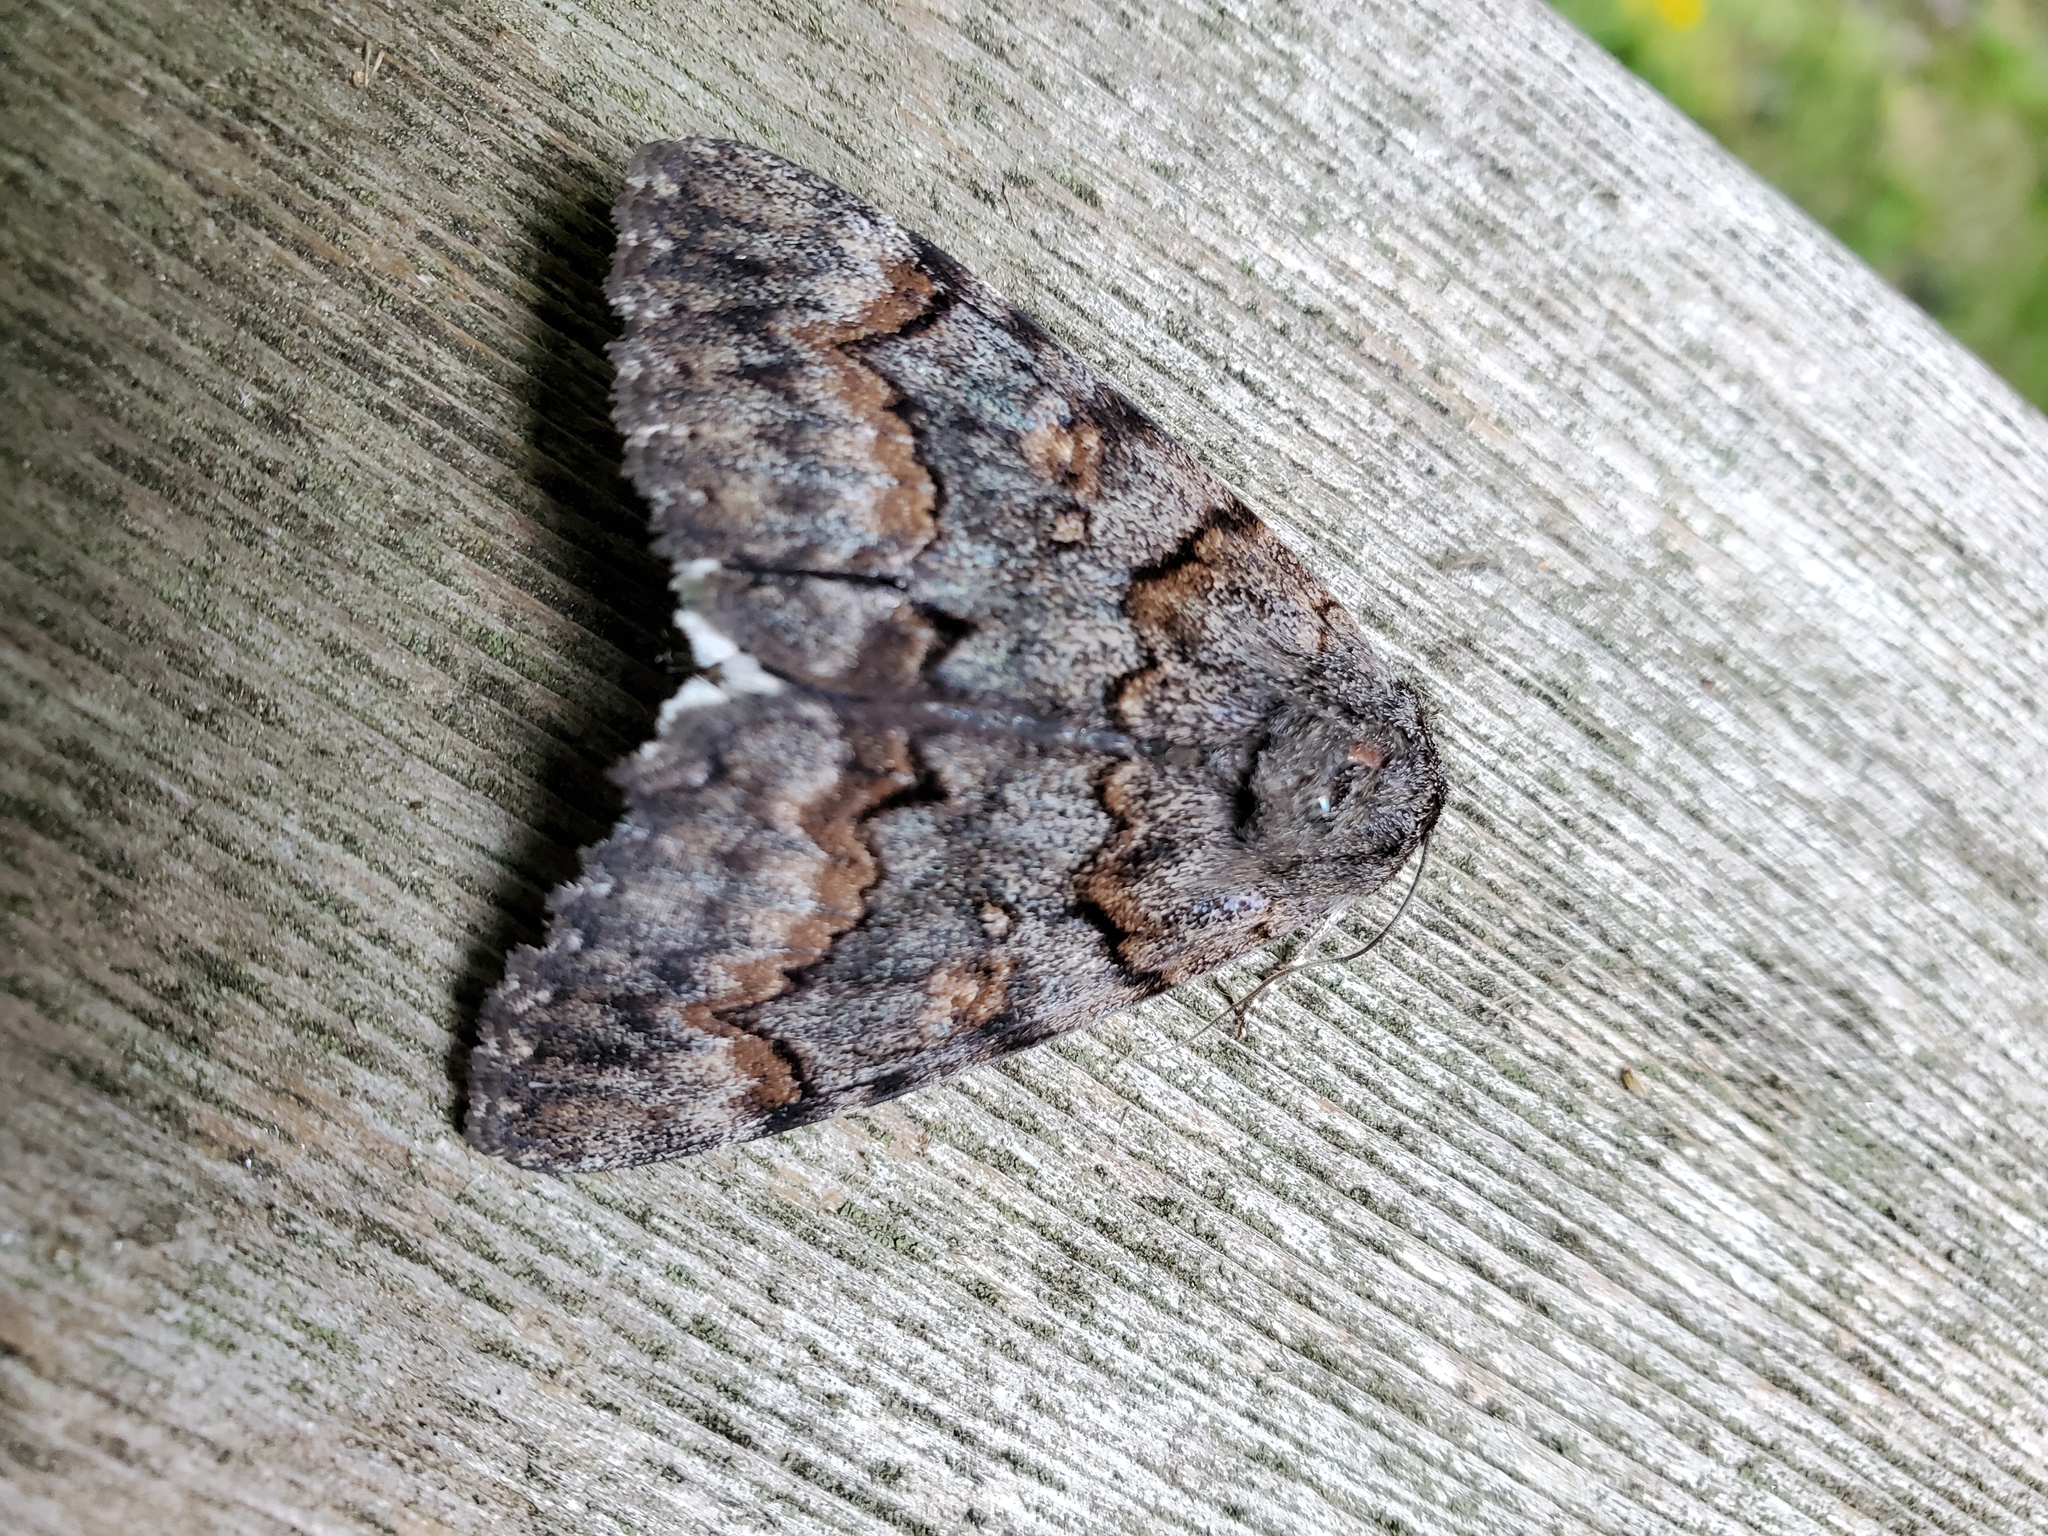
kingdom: Animalia
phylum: Arthropoda
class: Insecta
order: Lepidoptera
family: Erebidae
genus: Catocala
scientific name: Catocala epione
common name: Epione underwing
